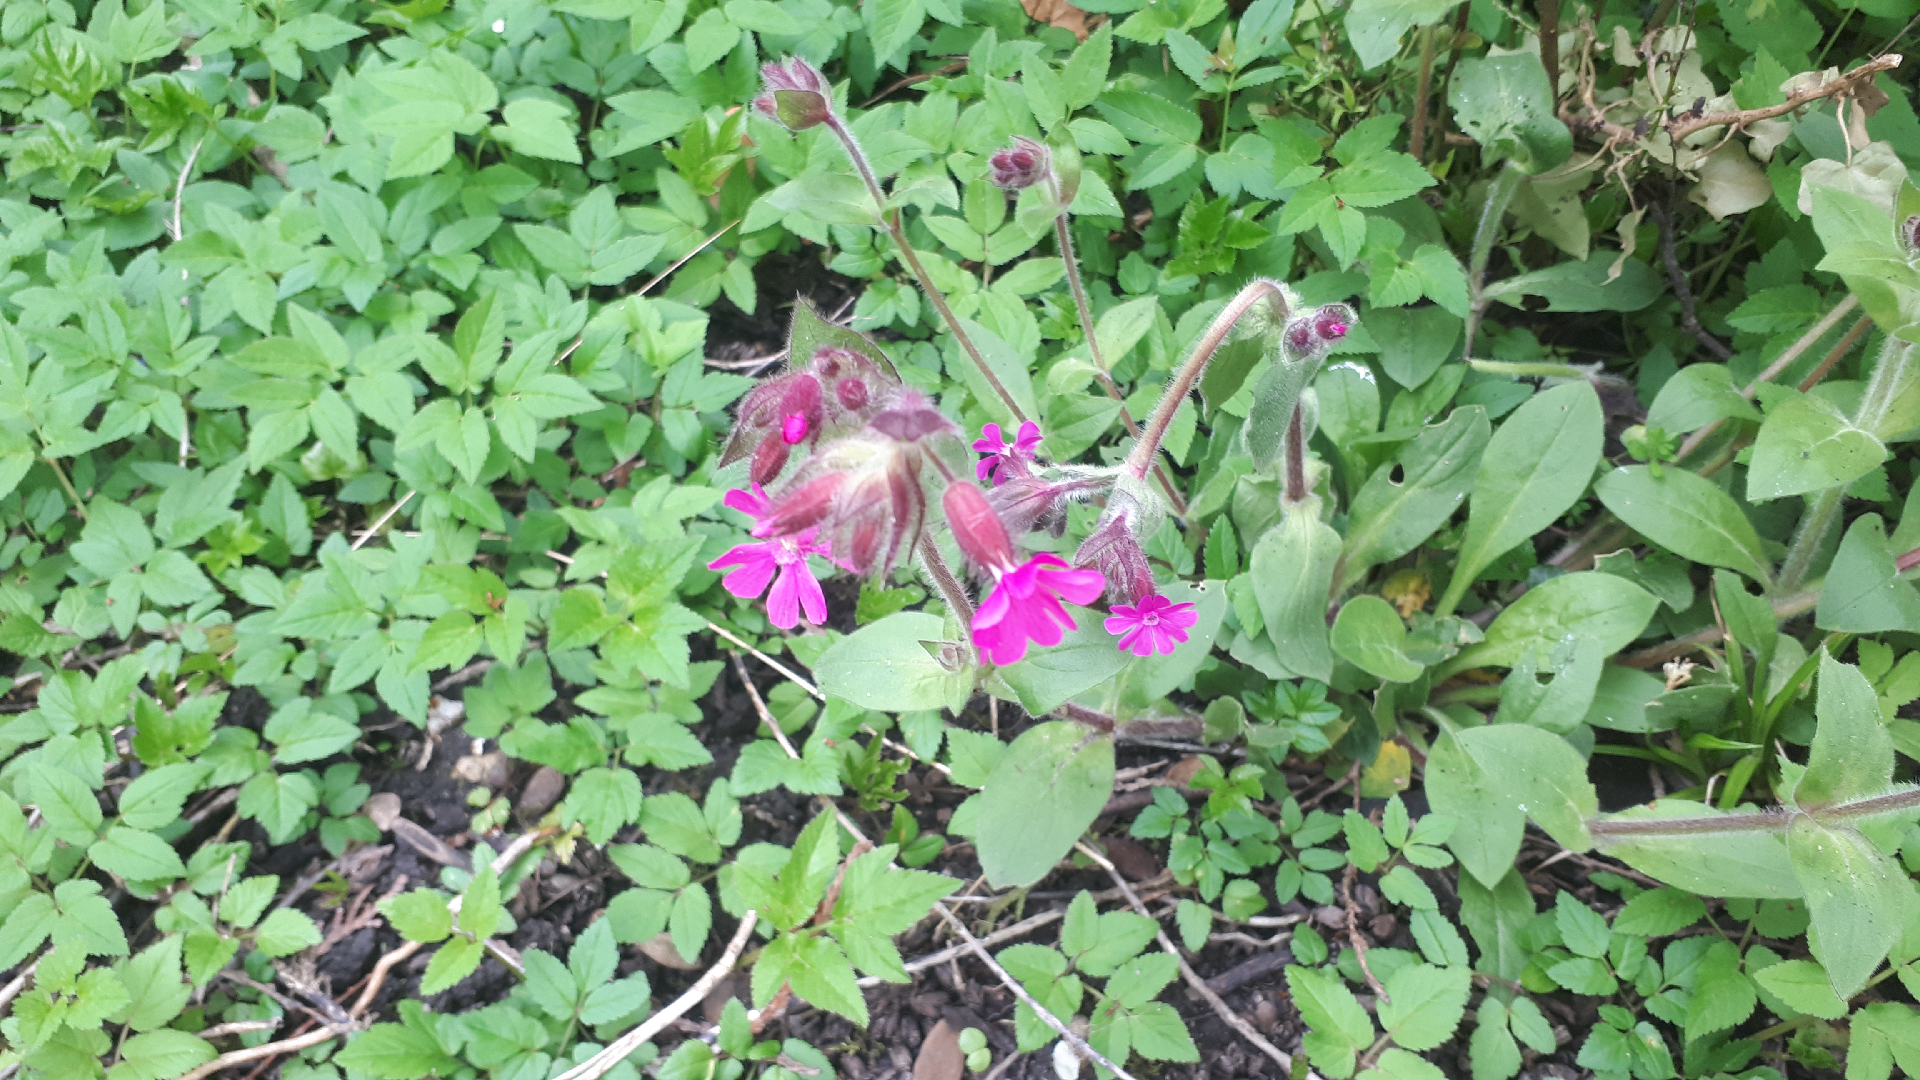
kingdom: Plantae
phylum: Tracheophyta
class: Magnoliopsida
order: Caryophyllales
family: Caryophyllaceae
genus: Silene
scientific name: Silene dioica
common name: Red campion
